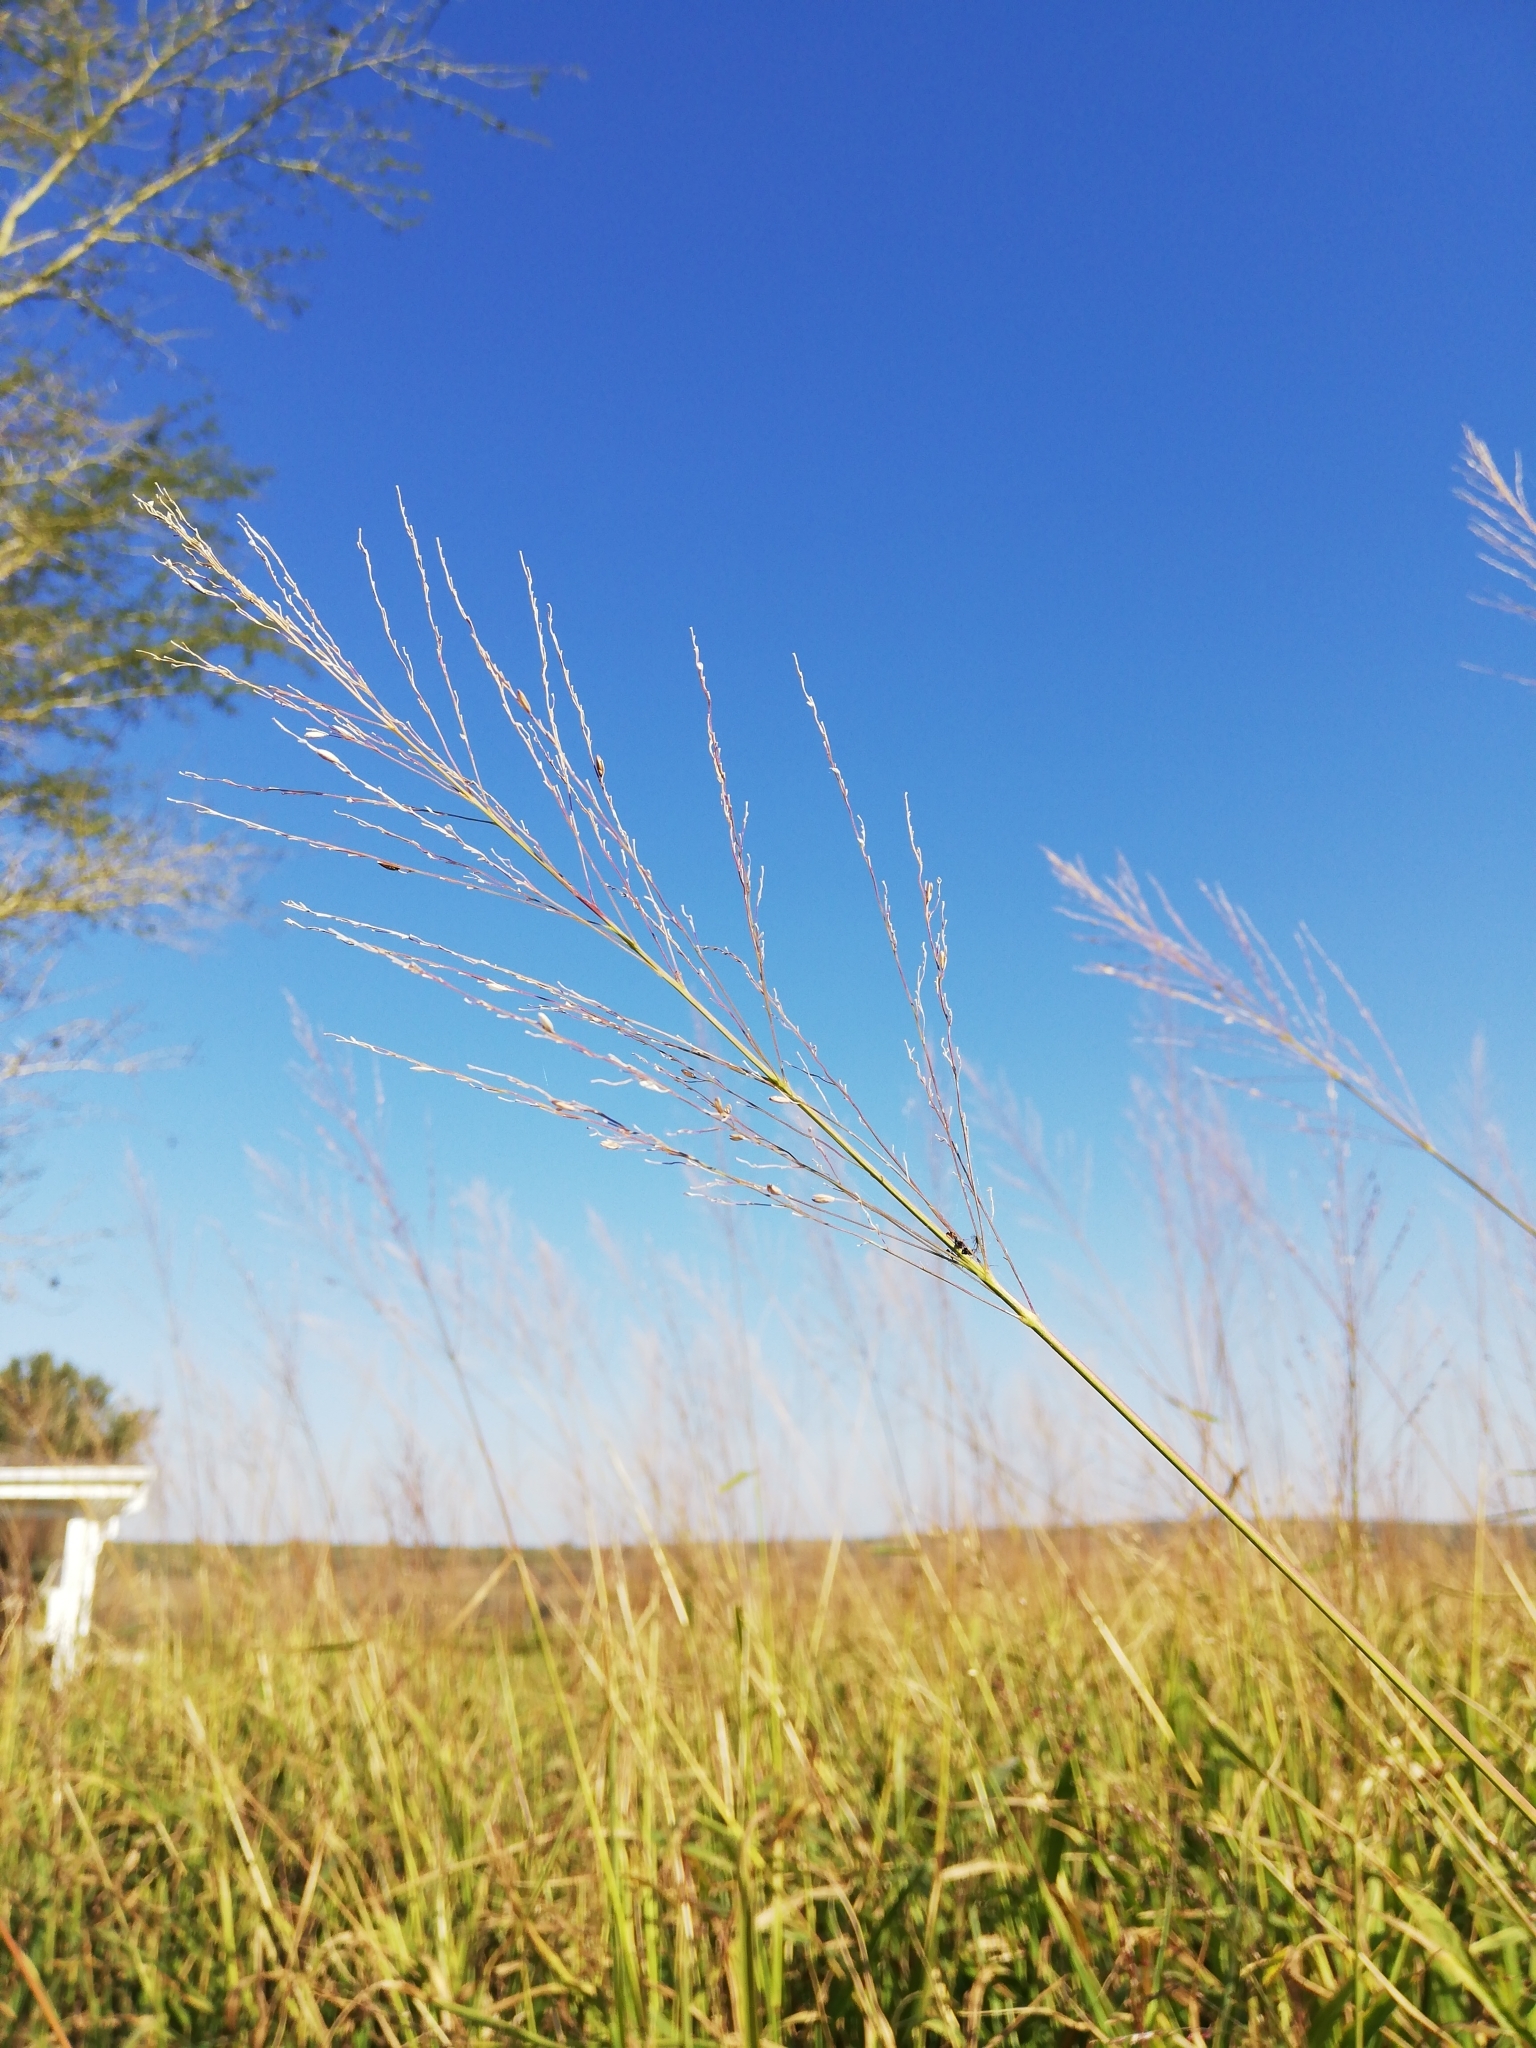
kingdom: Plantae
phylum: Tracheophyta
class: Liliopsida
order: Poales
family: Poaceae
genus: Megathyrsus
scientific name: Megathyrsus maximus
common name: Guineagrass
